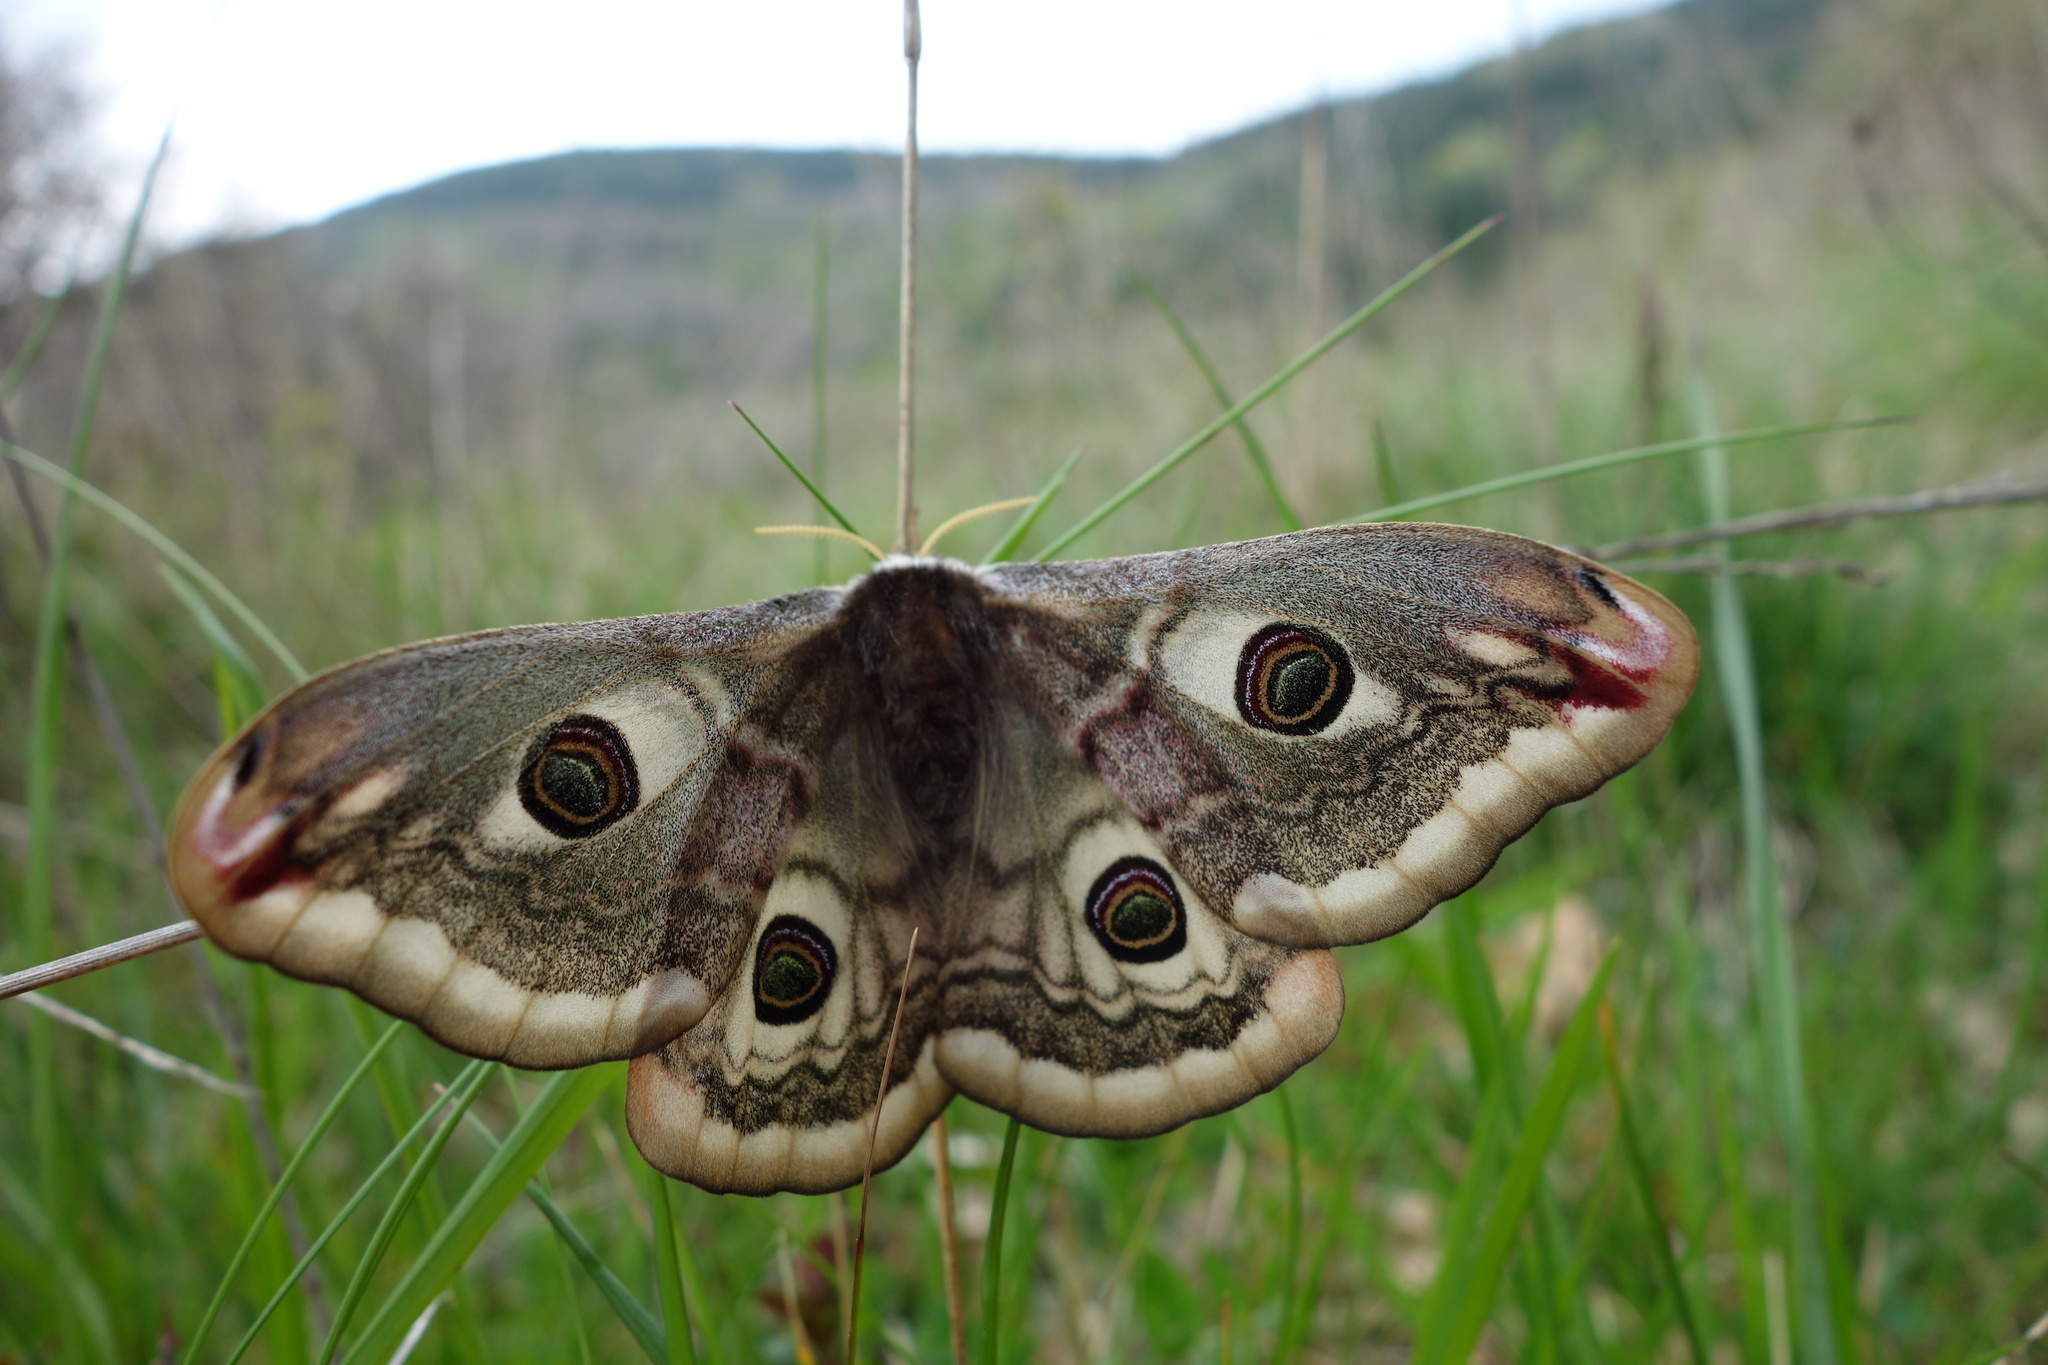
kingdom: Animalia
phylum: Arthropoda
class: Insecta
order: Lepidoptera
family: Saturniidae
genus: Saturnia
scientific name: Saturnia pavoniella
